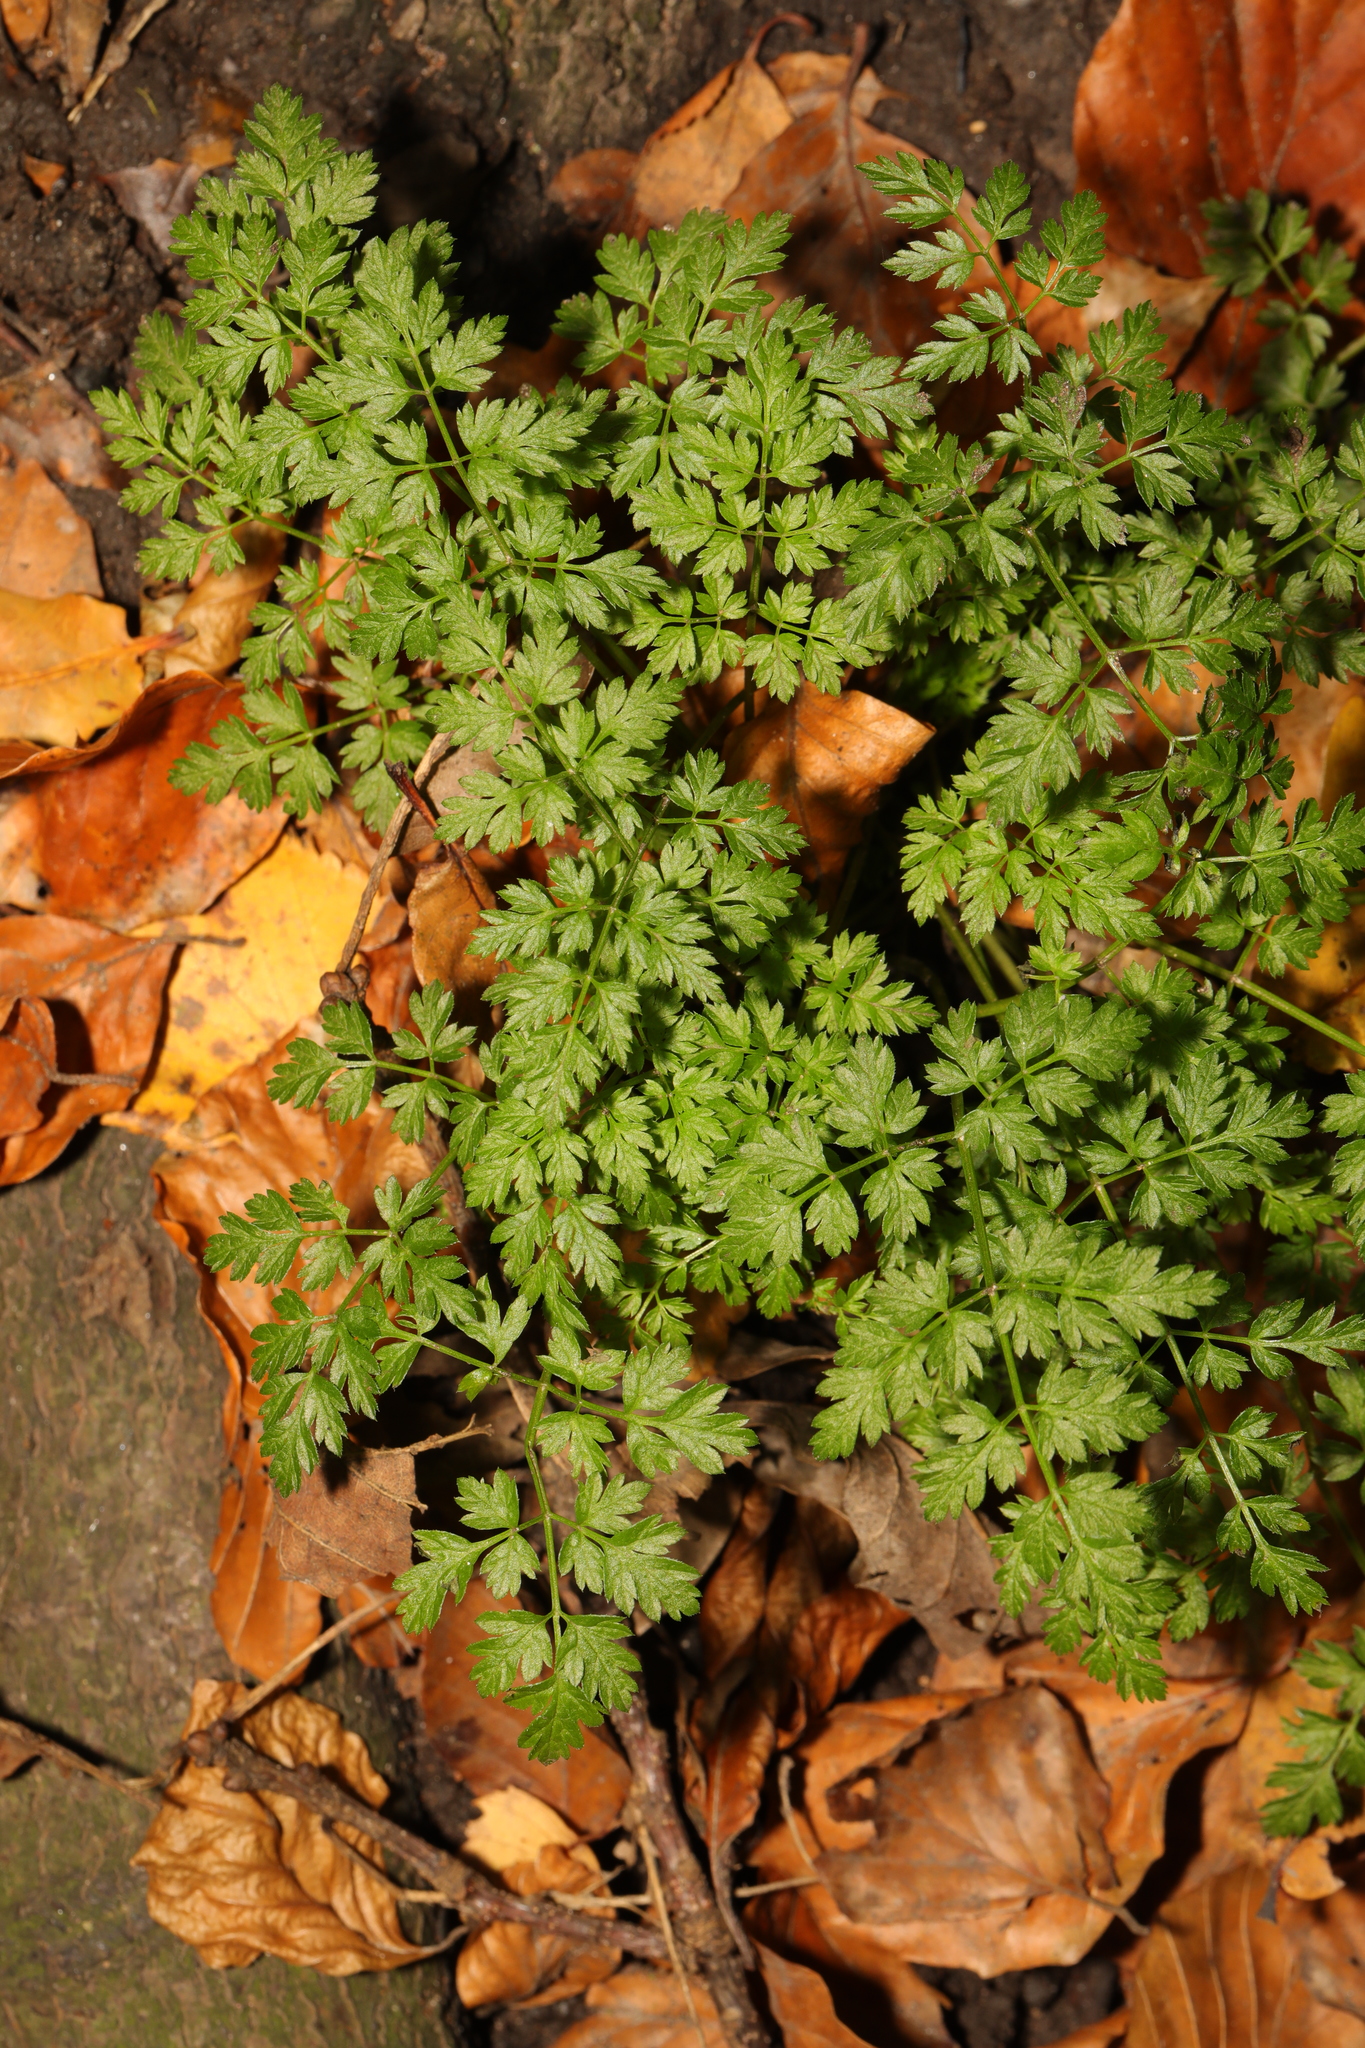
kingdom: Plantae
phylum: Tracheophyta
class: Magnoliopsida
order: Apiales
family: Apiaceae
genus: Anthriscus
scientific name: Anthriscus sylvestris
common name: Cow parsley
